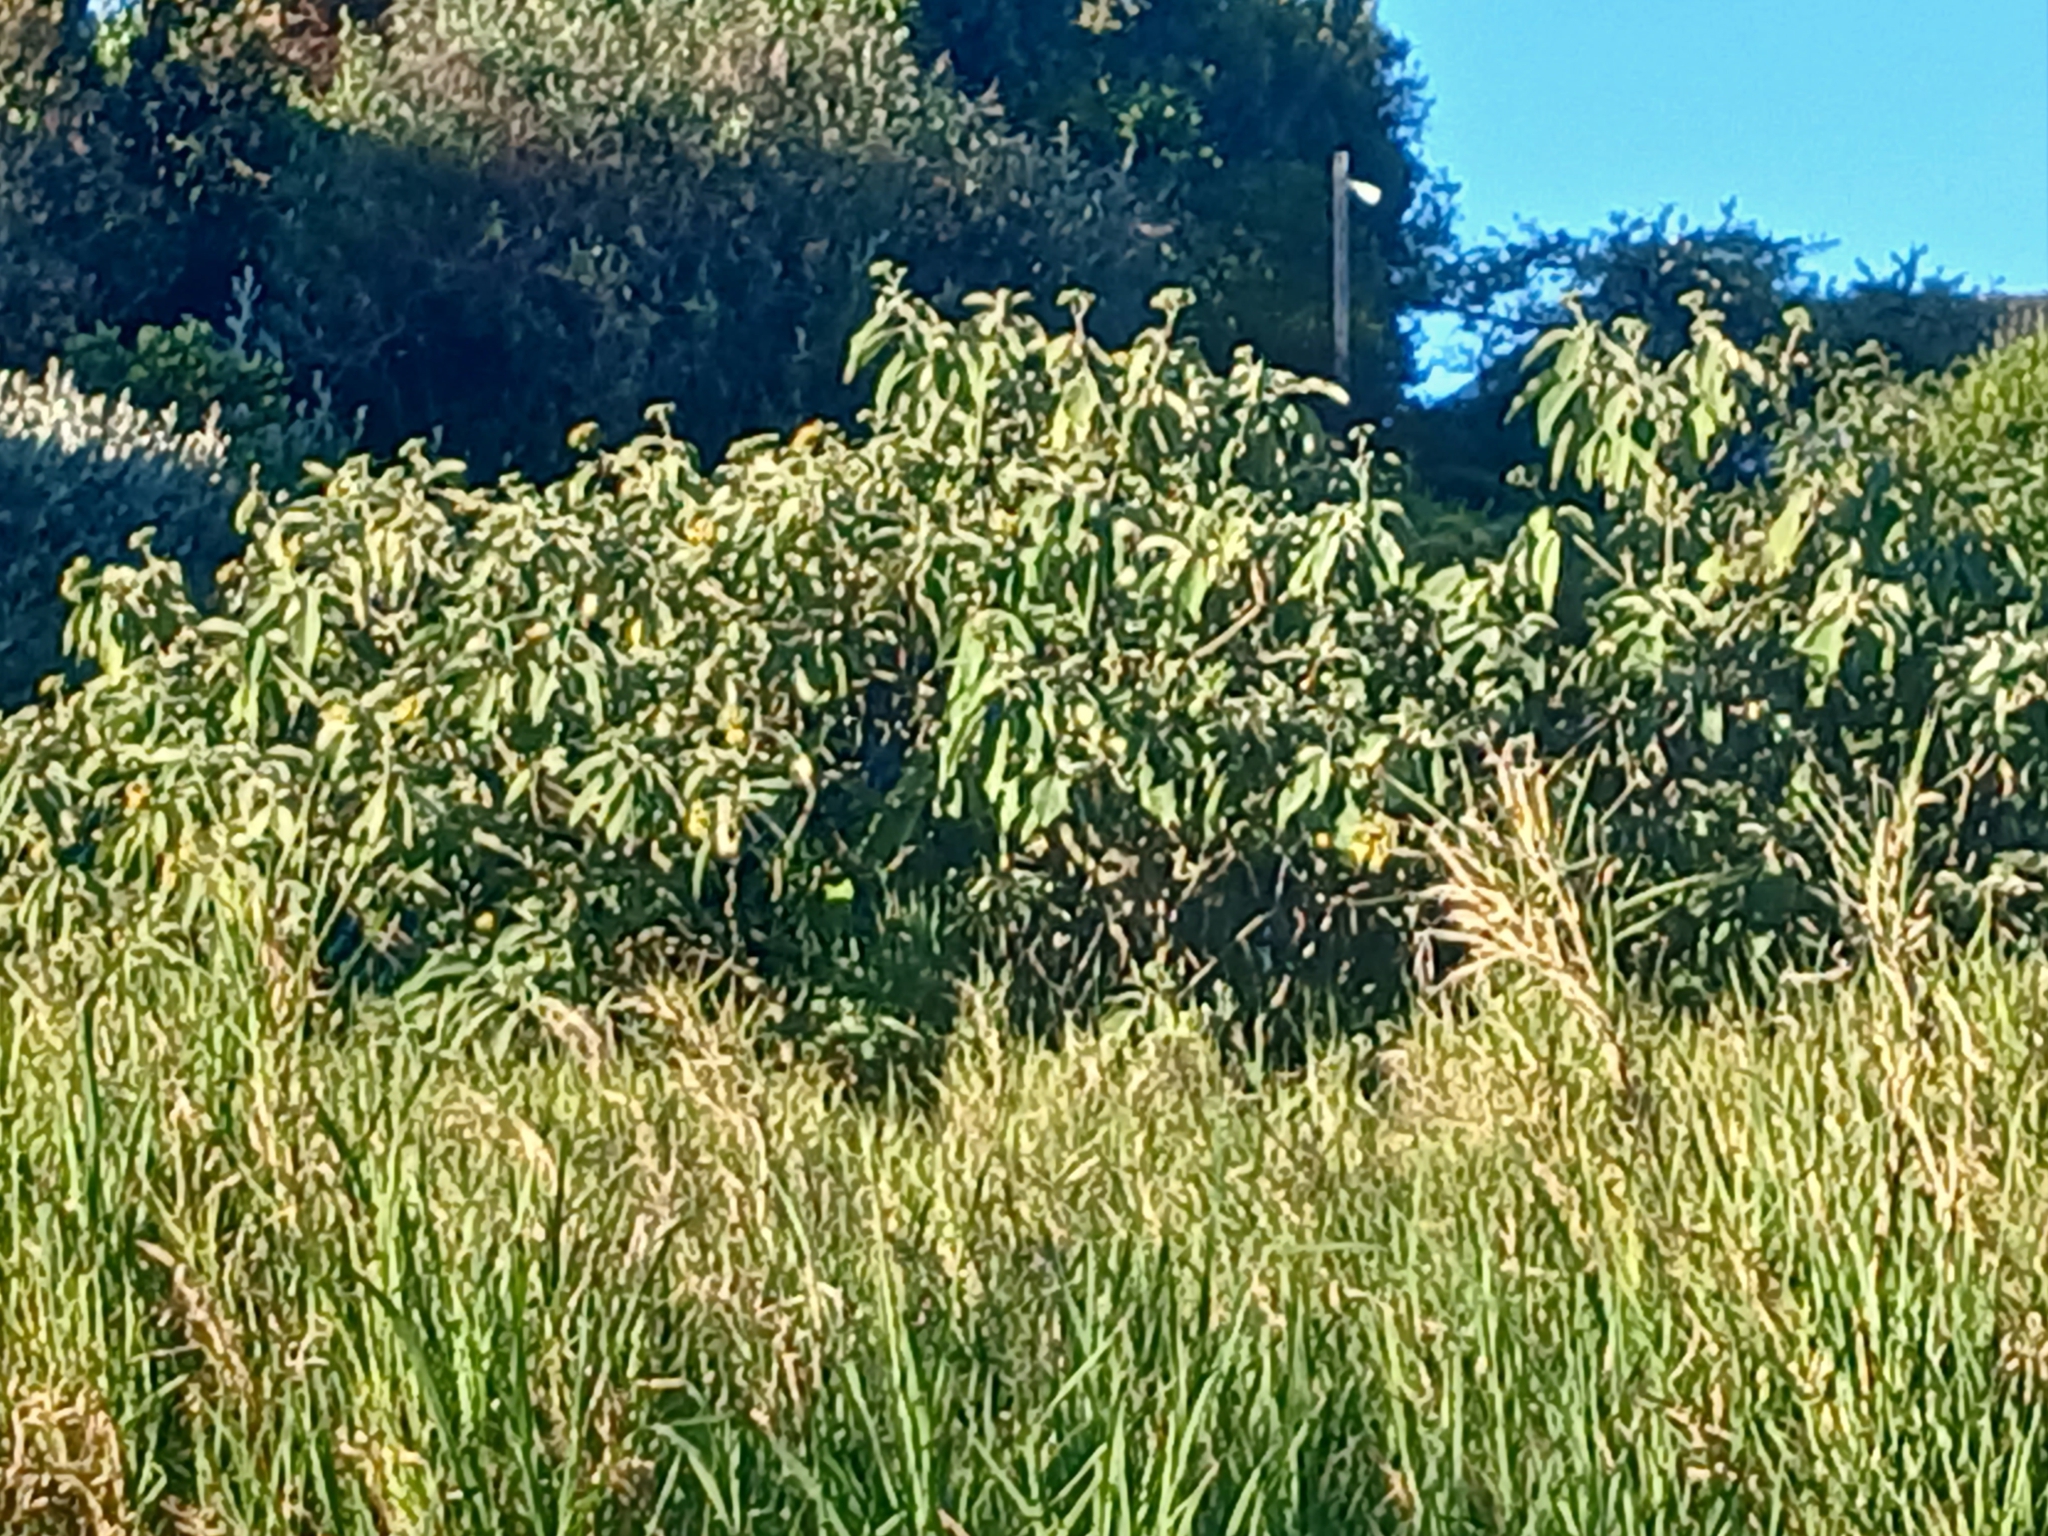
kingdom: Plantae
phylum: Tracheophyta
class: Magnoliopsida
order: Solanales
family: Solanaceae
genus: Solanum
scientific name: Solanum mauritianum
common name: Earleaf nightshade
